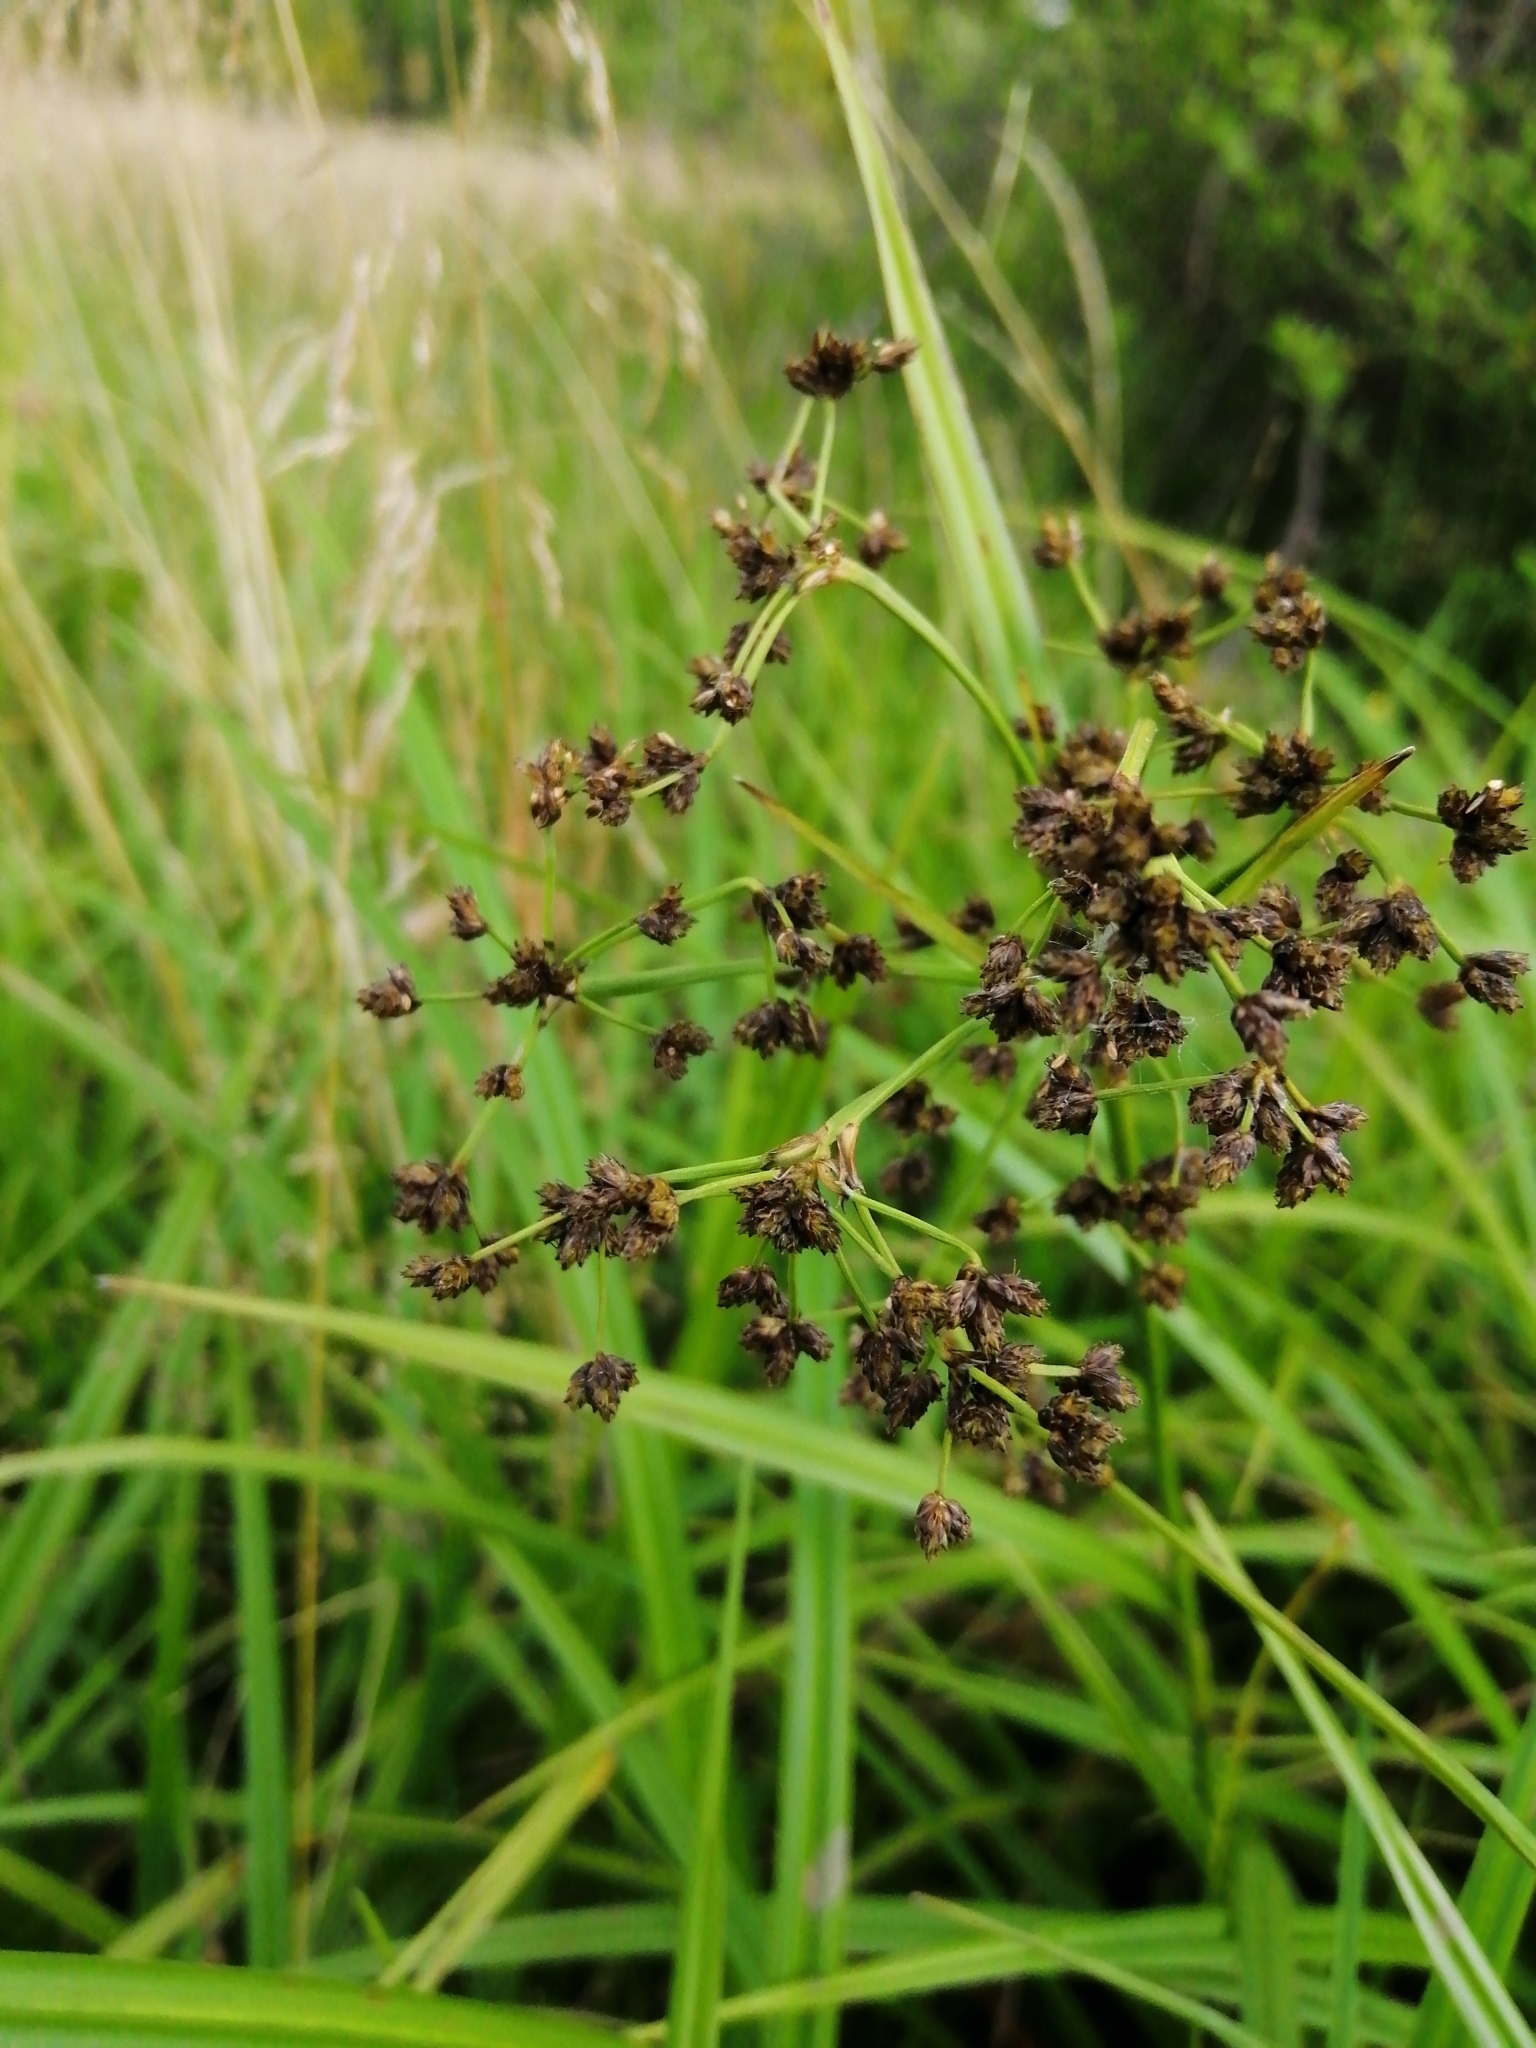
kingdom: Plantae
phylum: Tracheophyta
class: Liliopsida
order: Poales
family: Cyperaceae
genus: Scirpus
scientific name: Scirpus sylvaticus
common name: Wood club-rush
